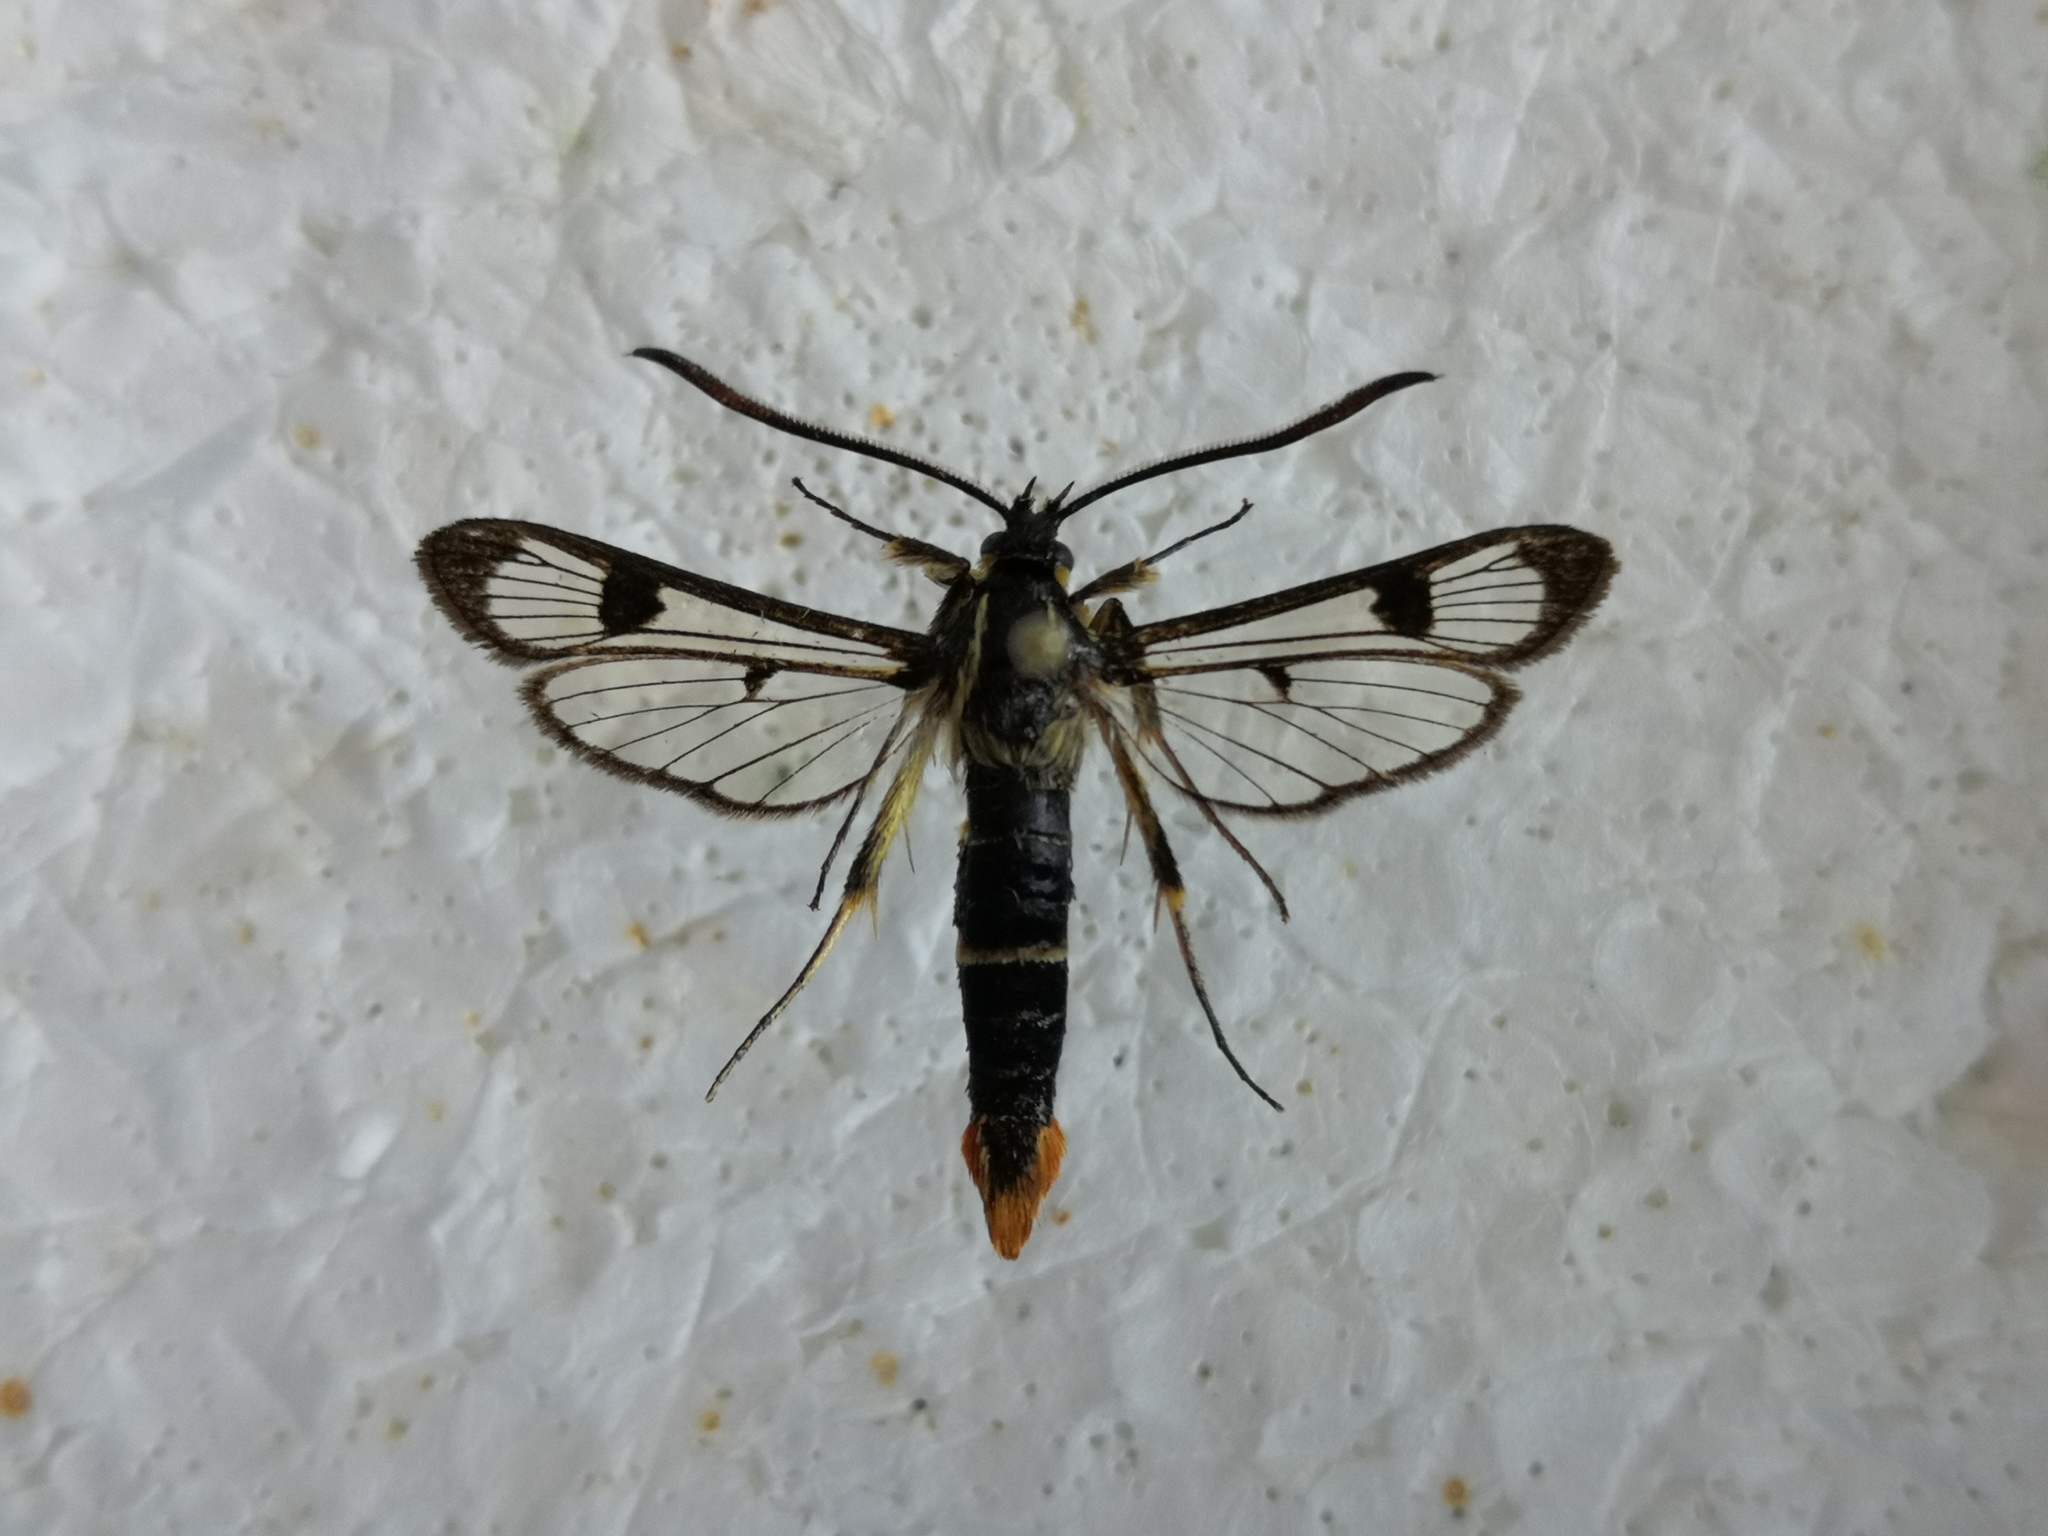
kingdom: Animalia
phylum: Arthropoda
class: Insecta
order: Lepidoptera
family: Sesiidae
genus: Synanthedon
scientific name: Synanthedon scoliaeformis
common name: Welsh clearwing
